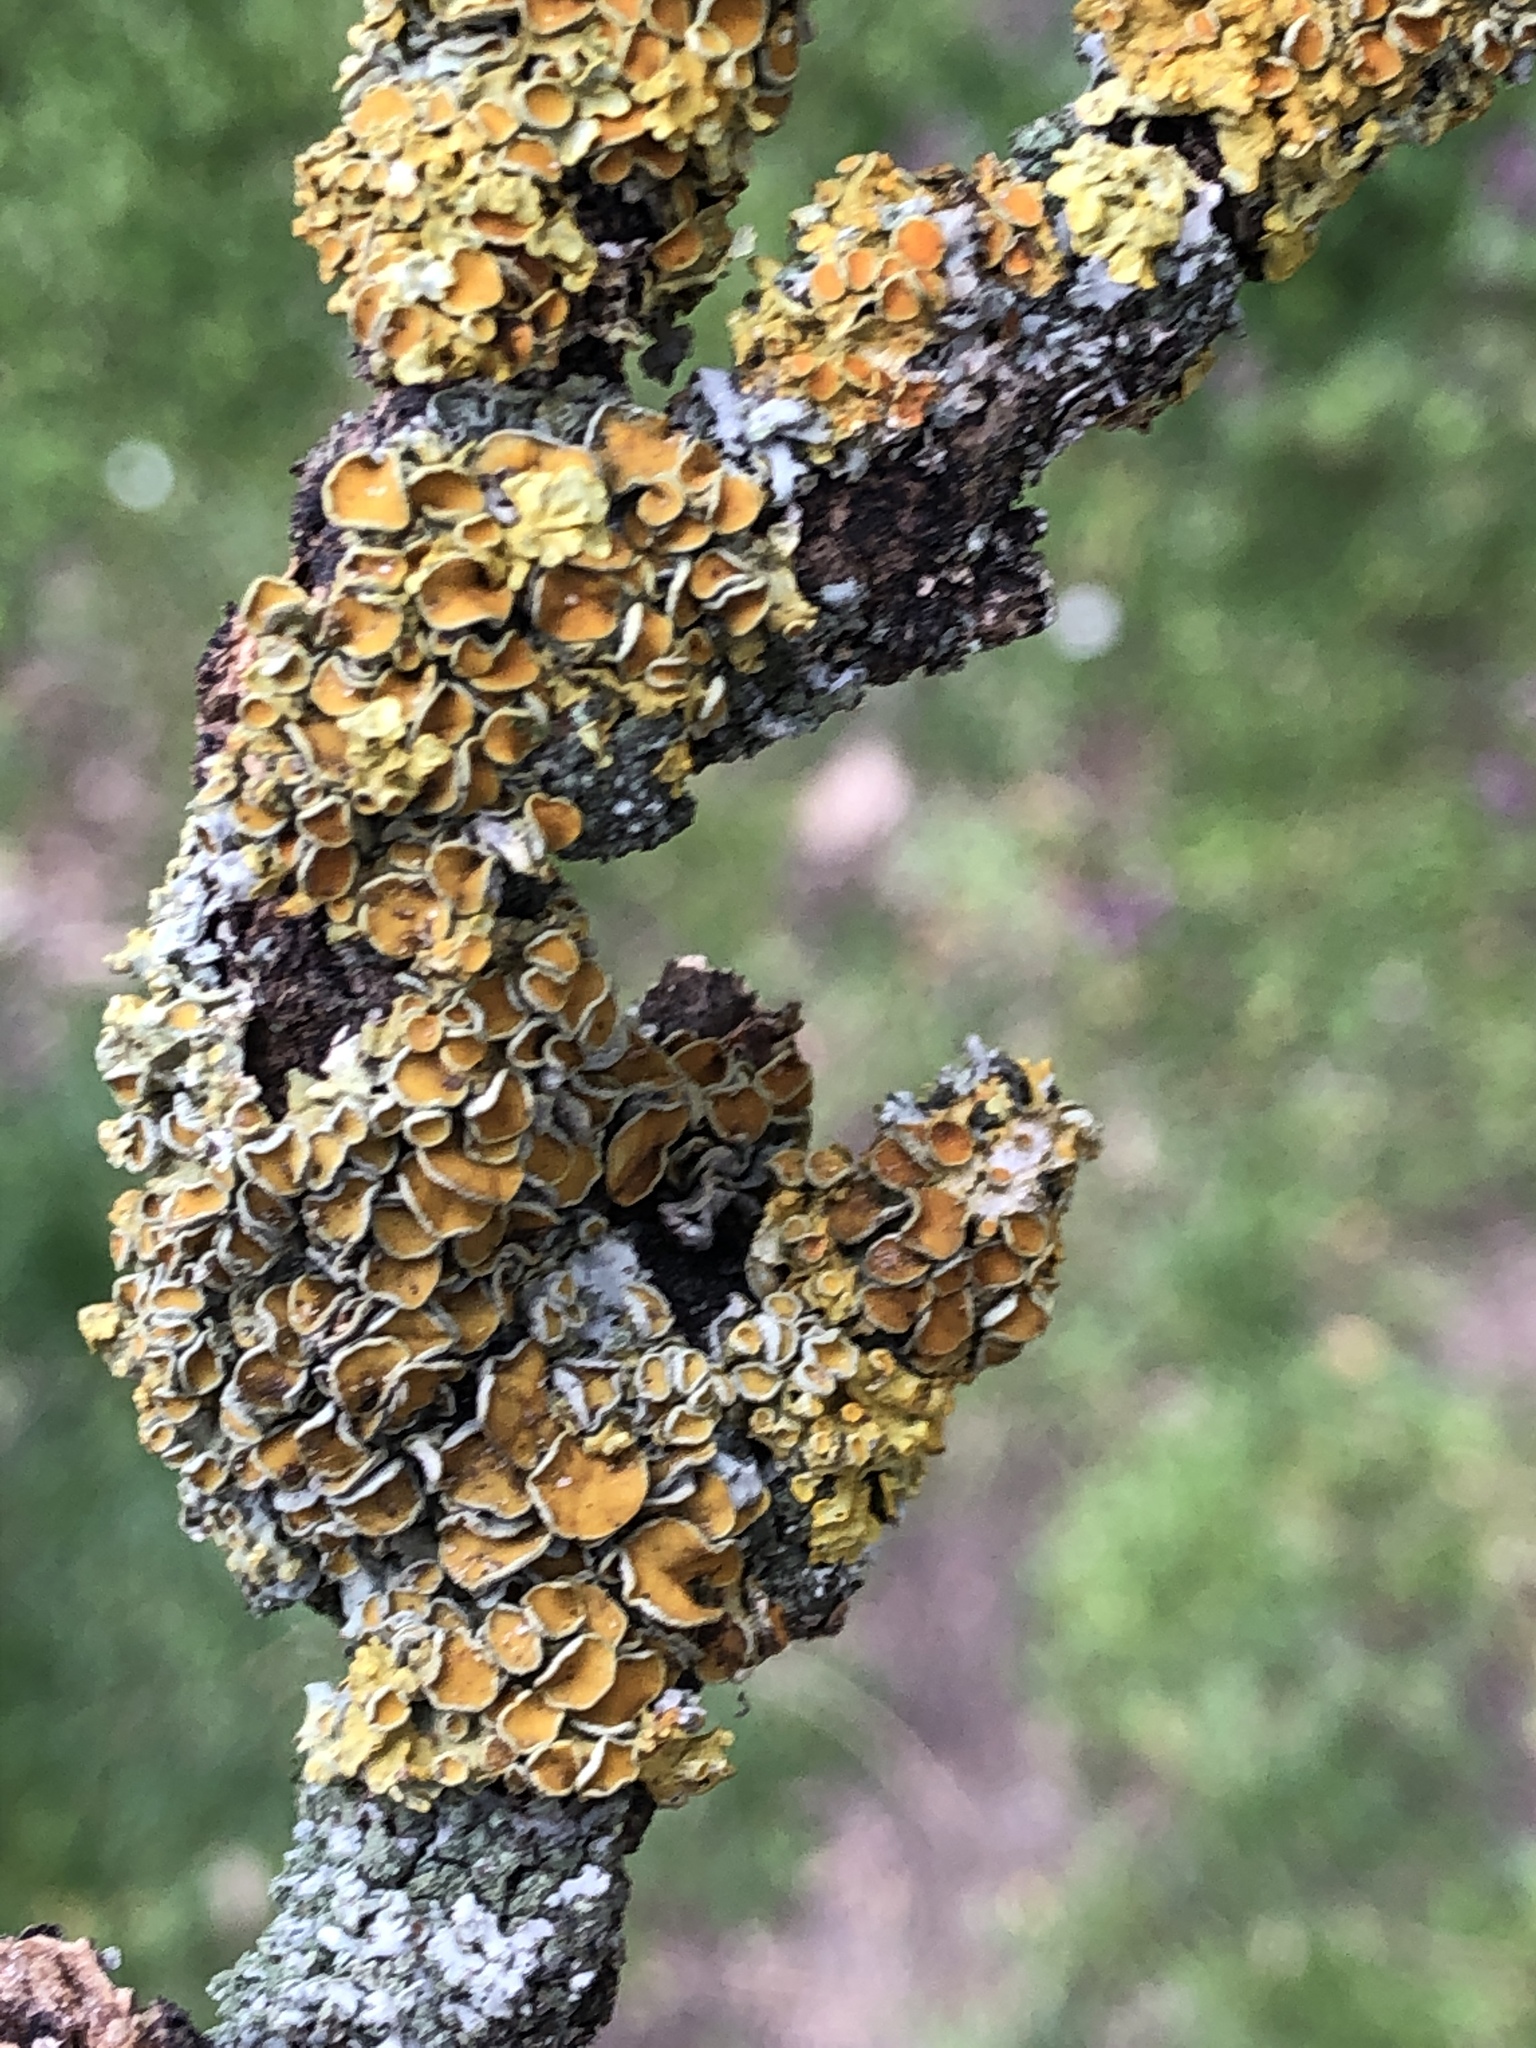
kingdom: Fungi
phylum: Ascomycota
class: Lecanoromycetes
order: Teloschistales
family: Teloschistaceae
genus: Xanthoria
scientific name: Xanthoria parietina
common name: Common orange lichen
